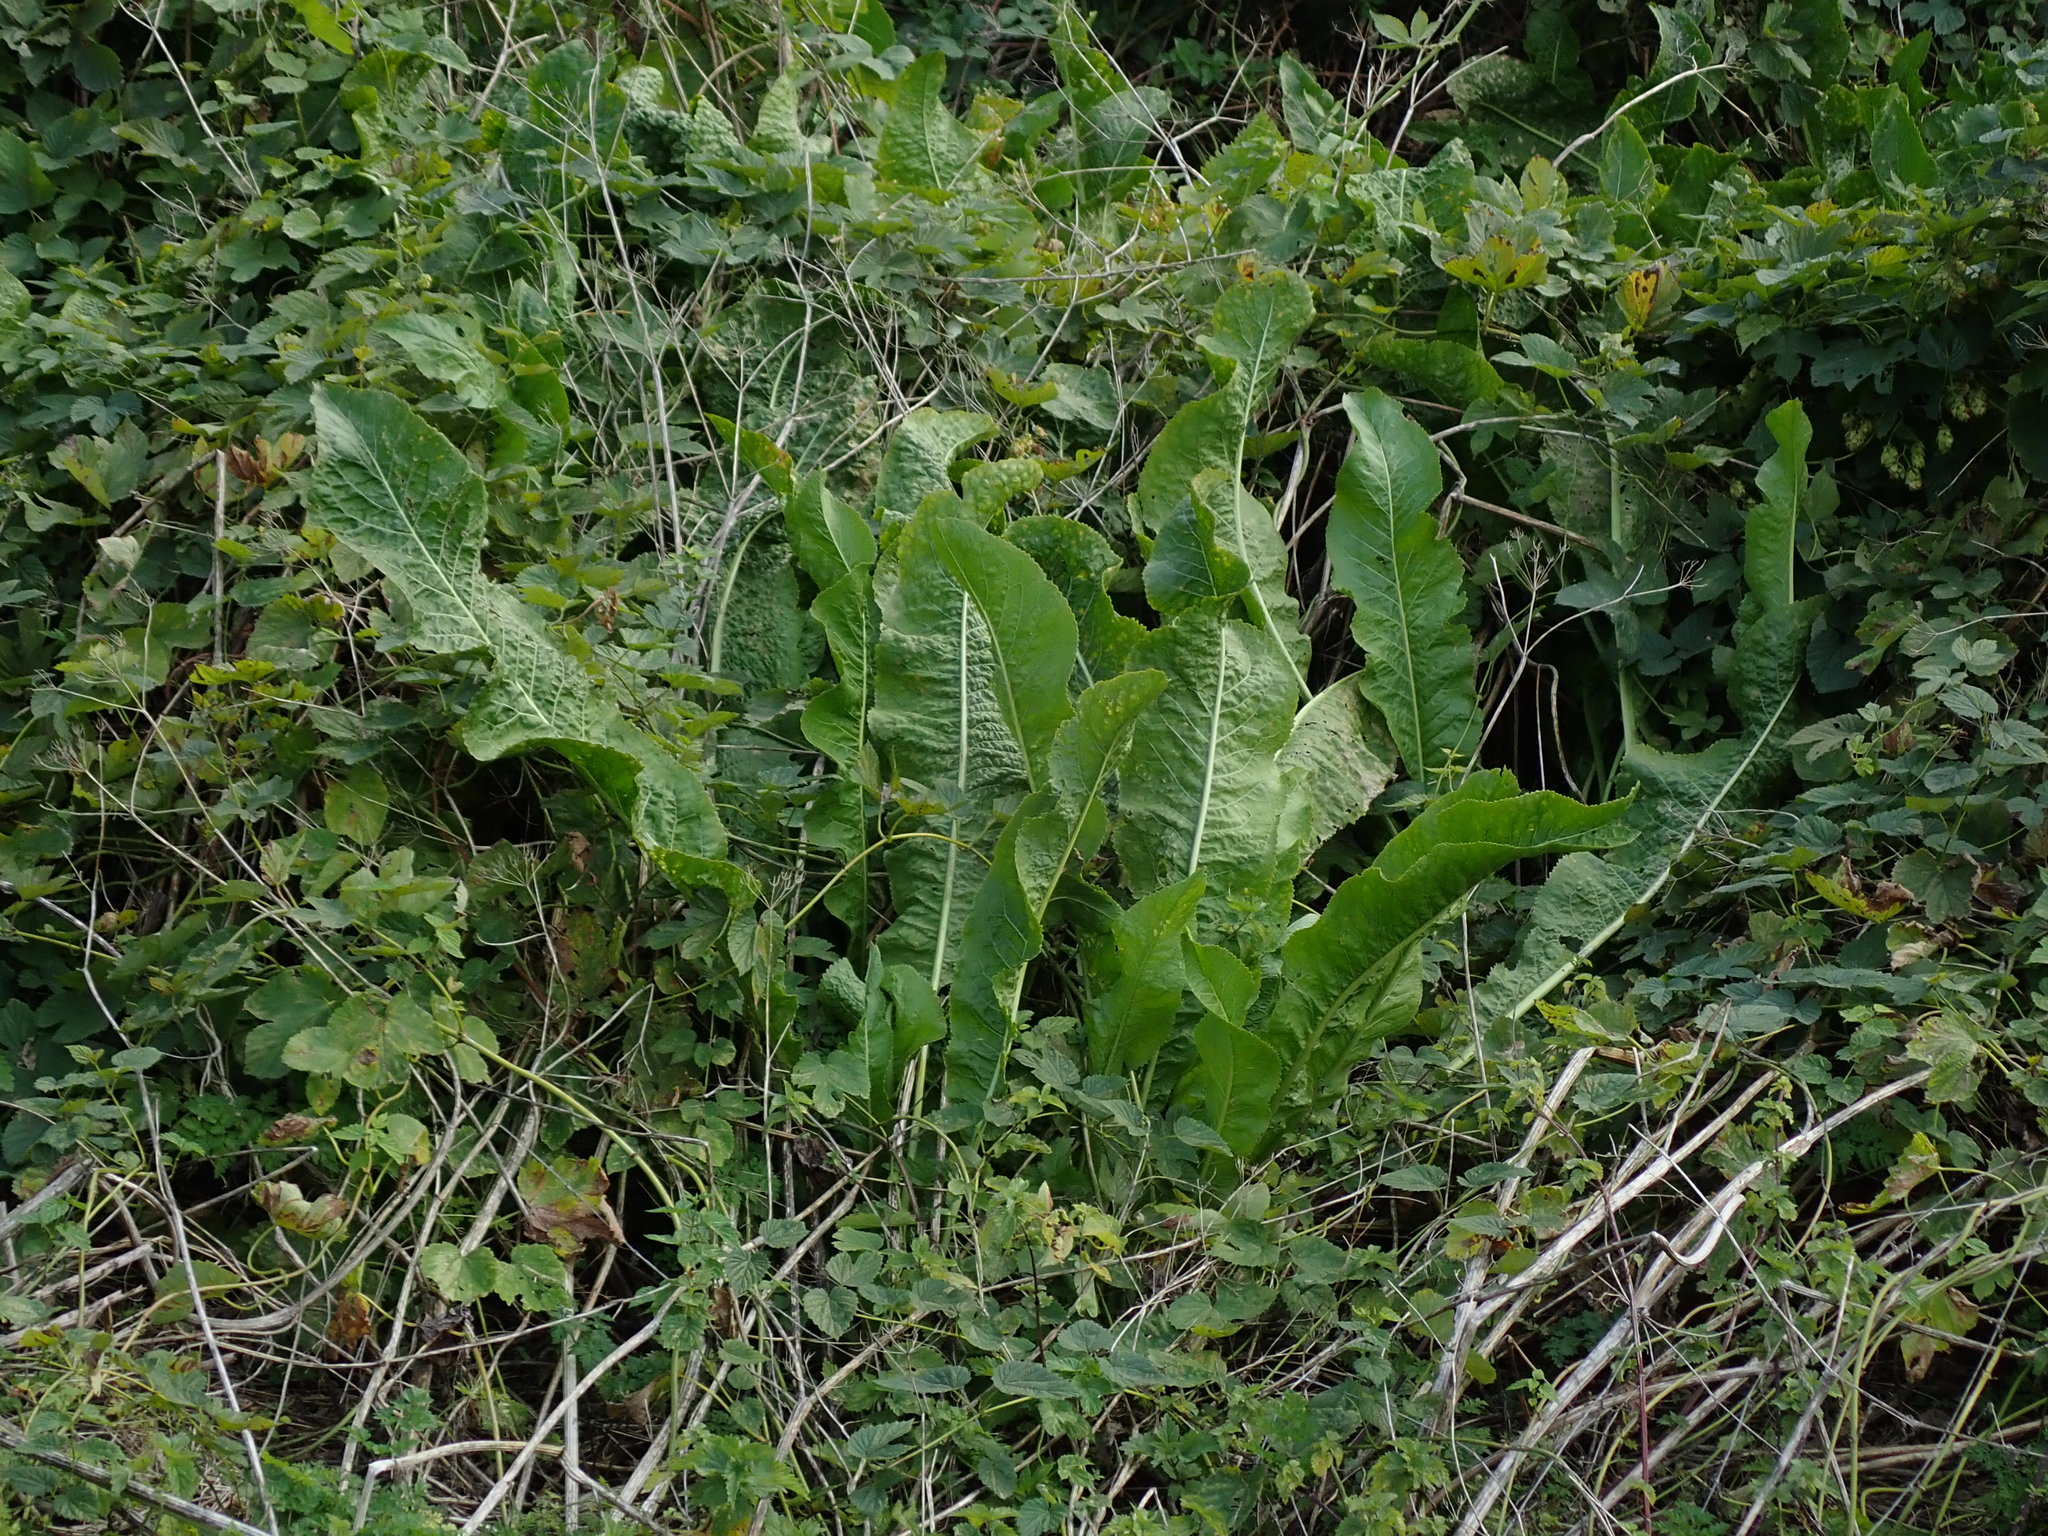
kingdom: Plantae
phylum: Tracheophyta
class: Magnoliopsida
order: Brassicales
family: Brassicaceae
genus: Armoracia
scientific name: Armoracia rusticana
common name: Horseradish
